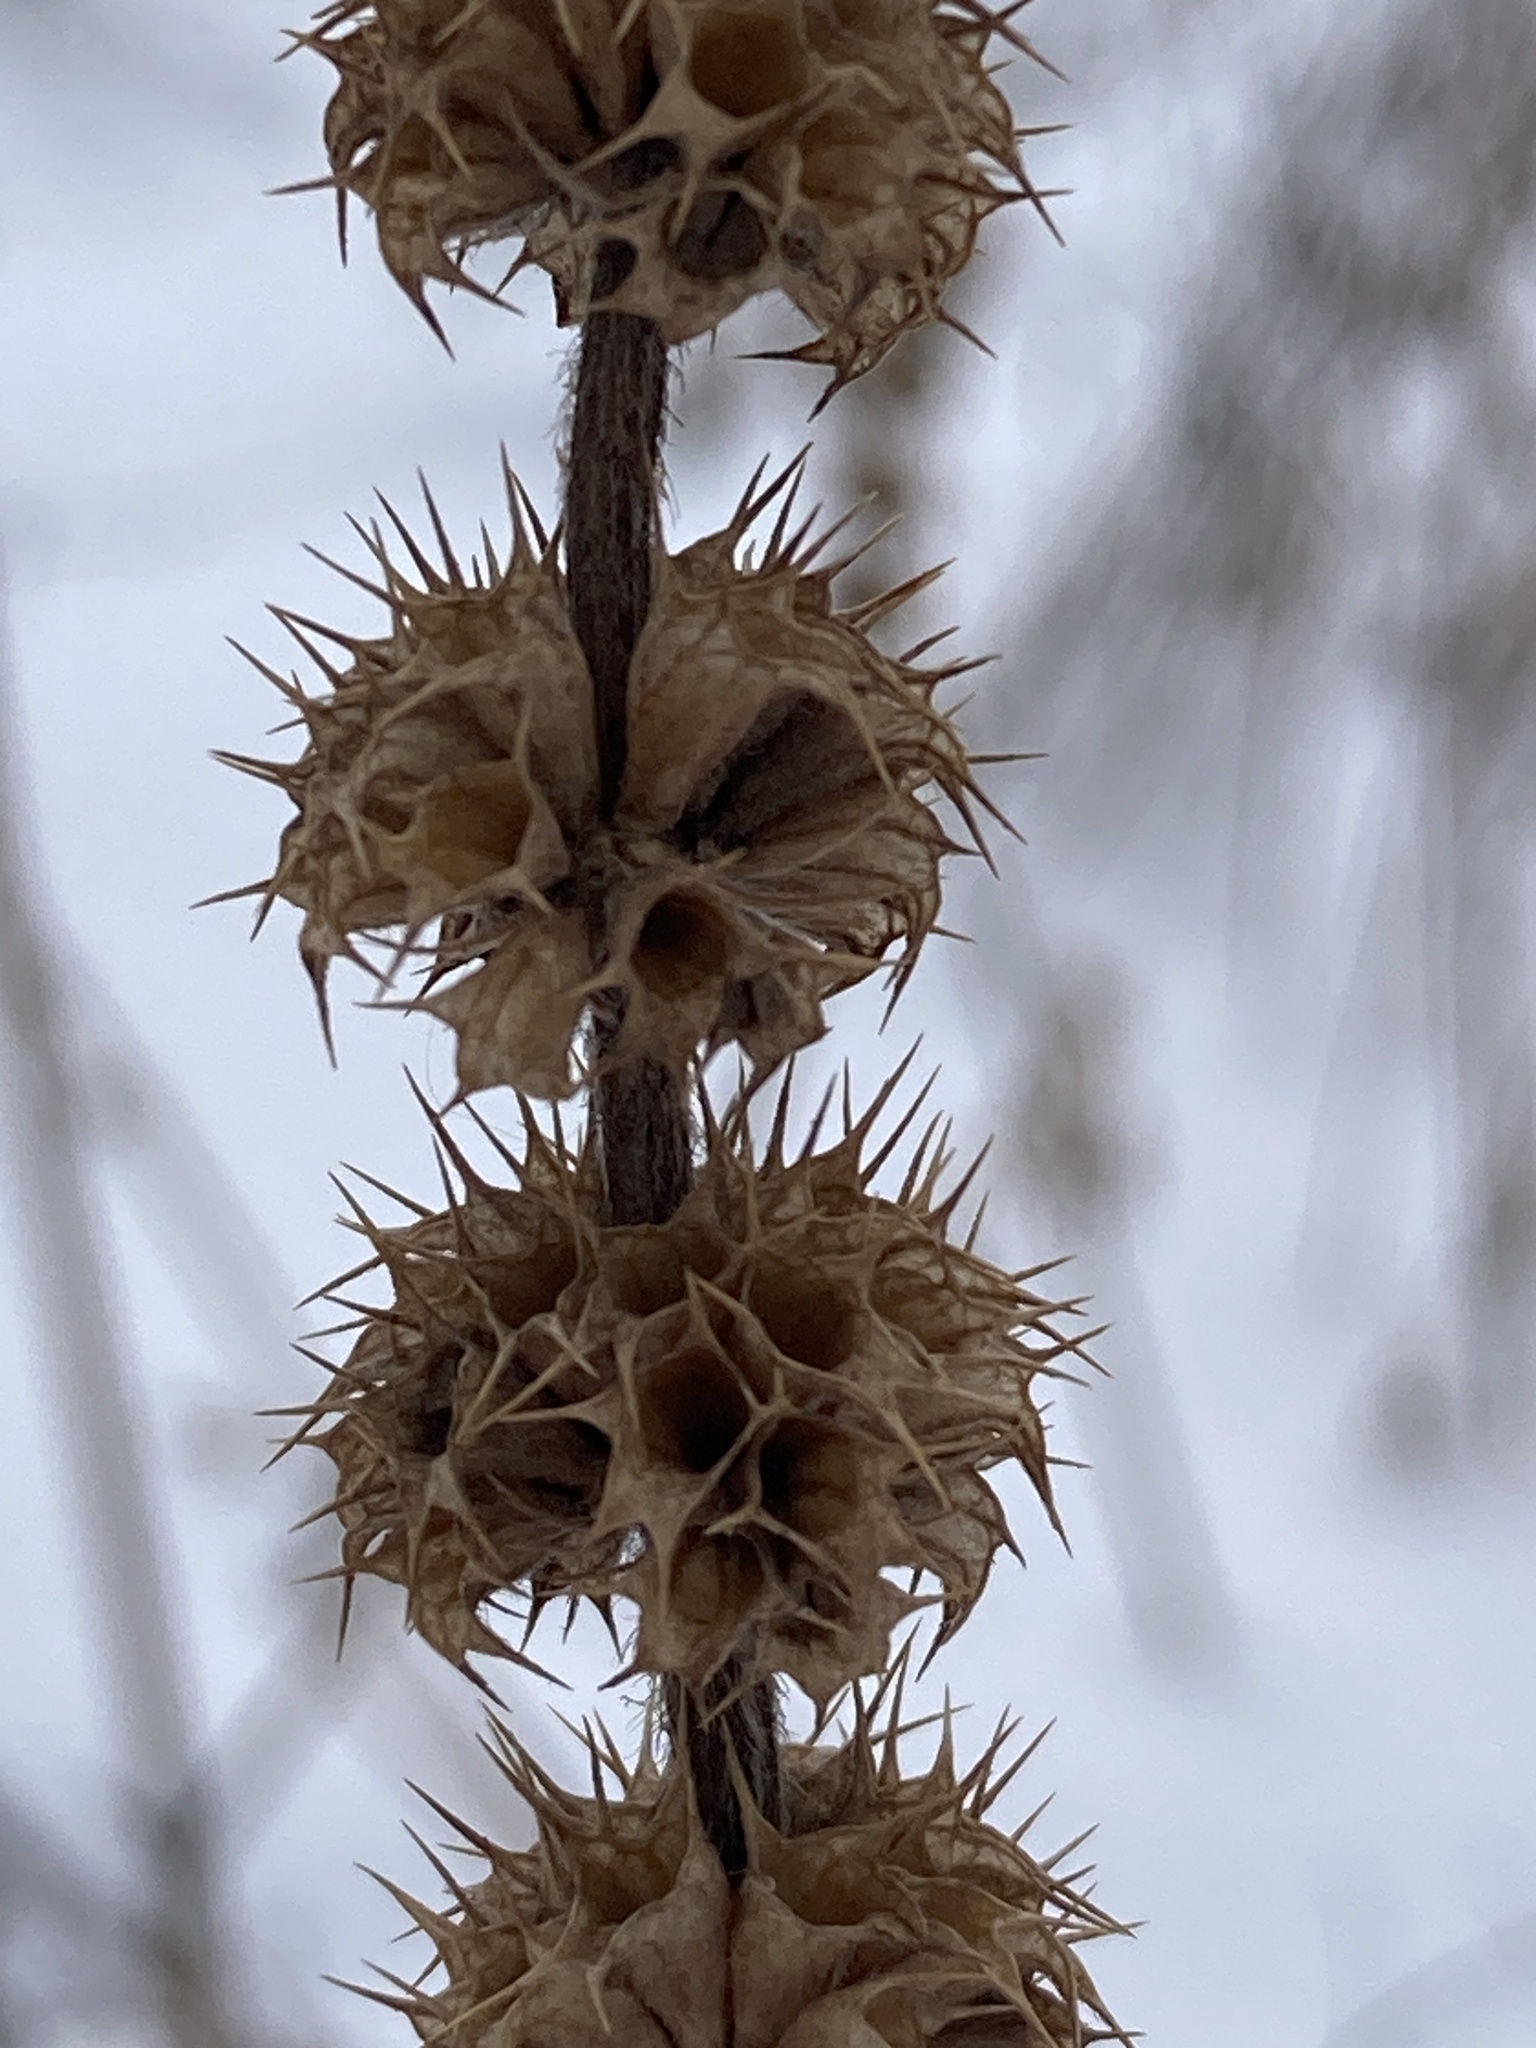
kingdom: Plantae
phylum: Tracheophyta
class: Magnoliopsida
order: Lamiales
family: Lamiaceae
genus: Leonurus
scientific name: Leonurus quinquelobatus
